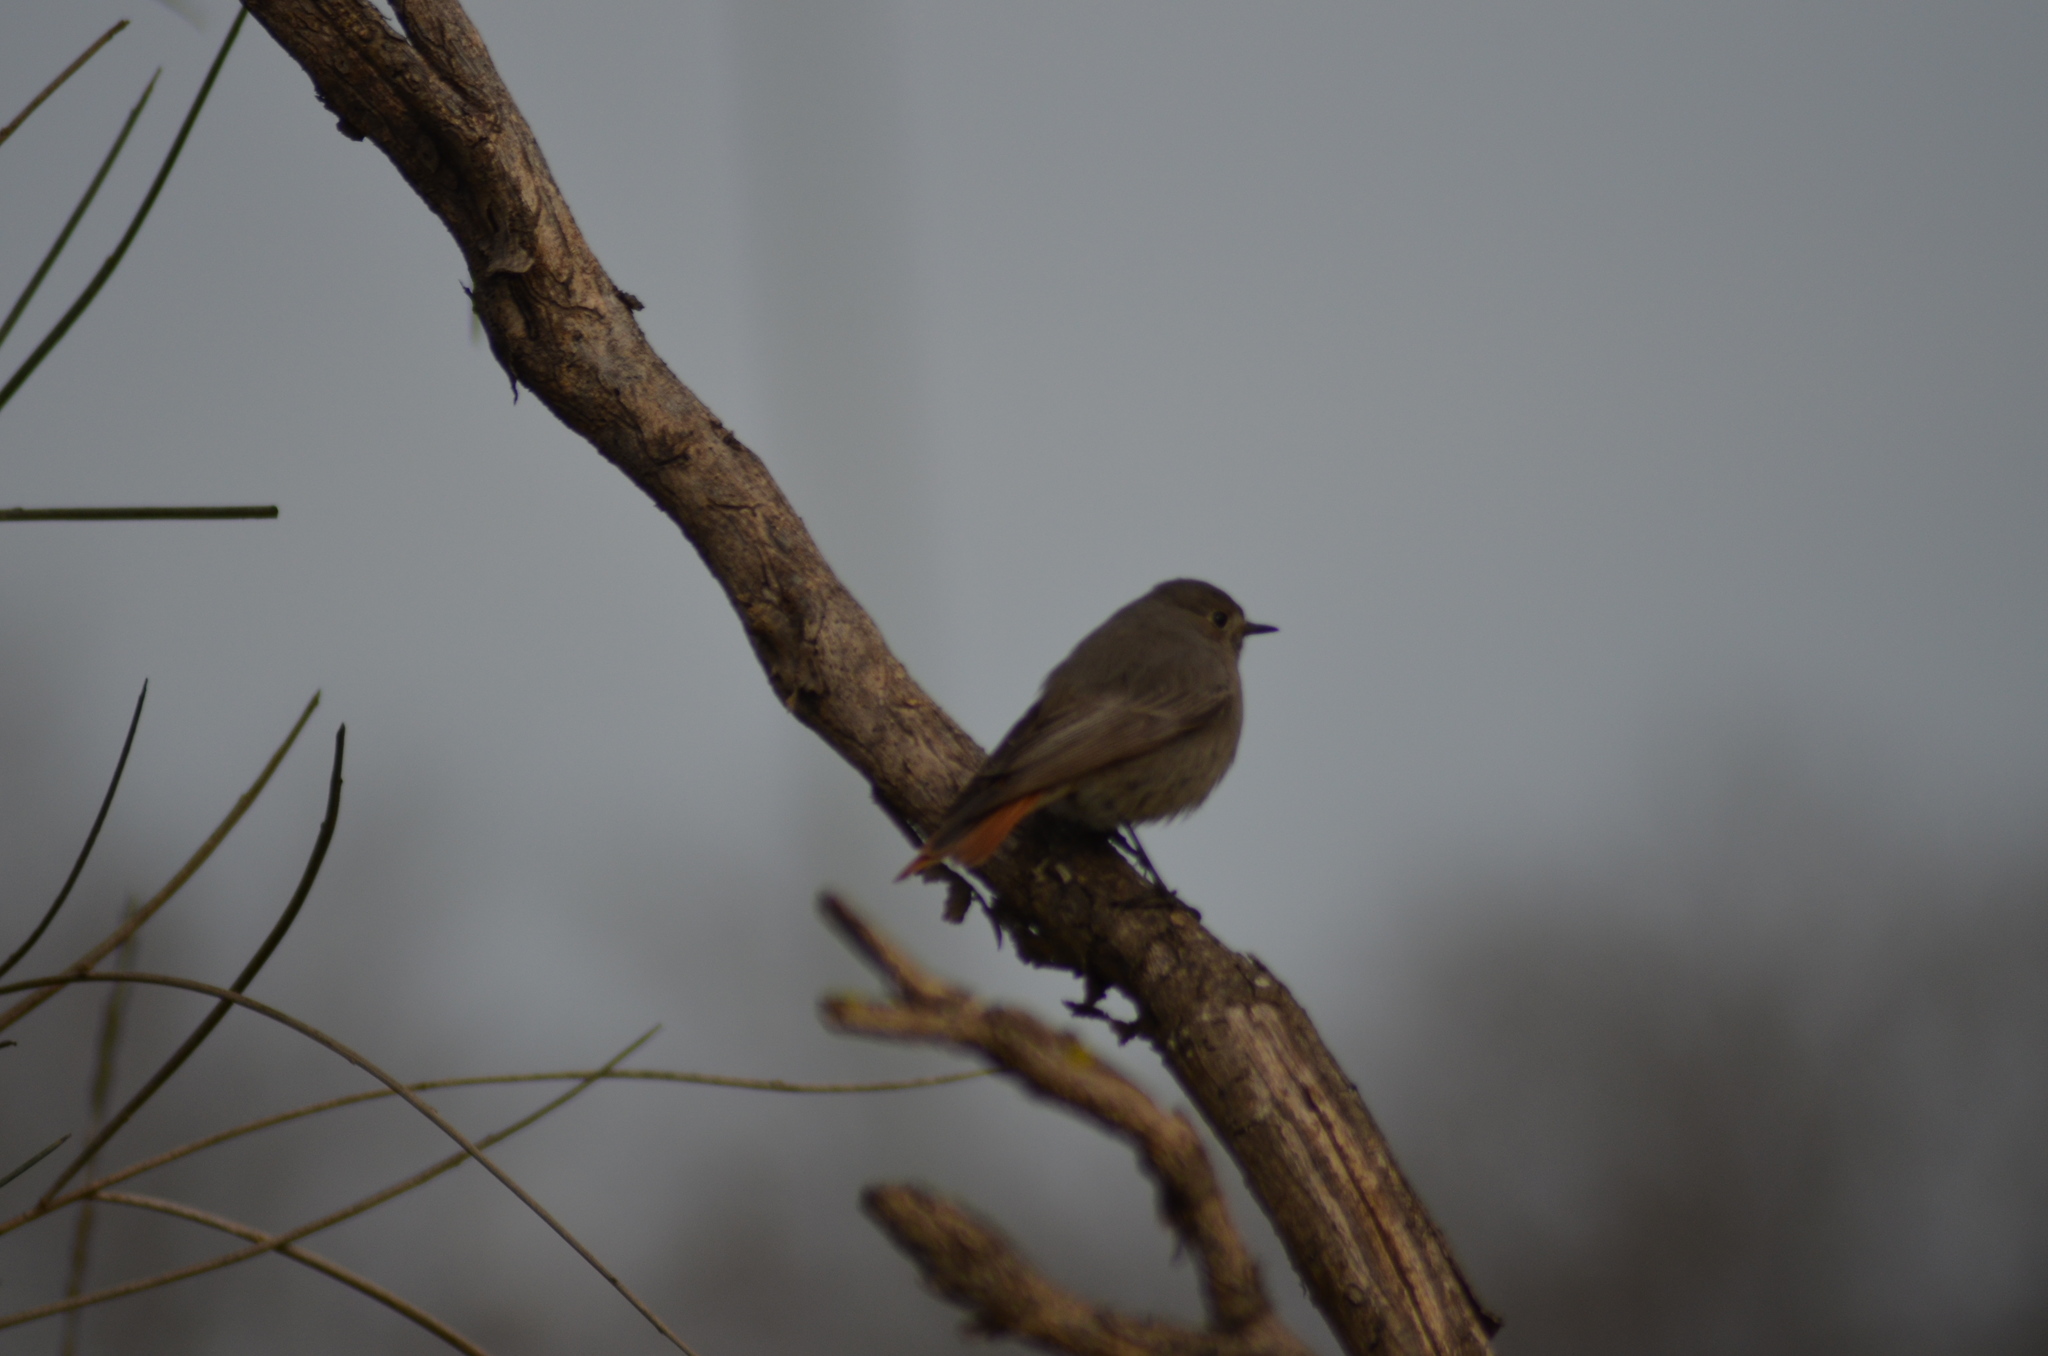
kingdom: Animalia
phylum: Chordata
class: Aves
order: Passeriformes
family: Muscicapidae
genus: Phoenicurus
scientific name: Phoenicurus ochruros
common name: Black redstart
